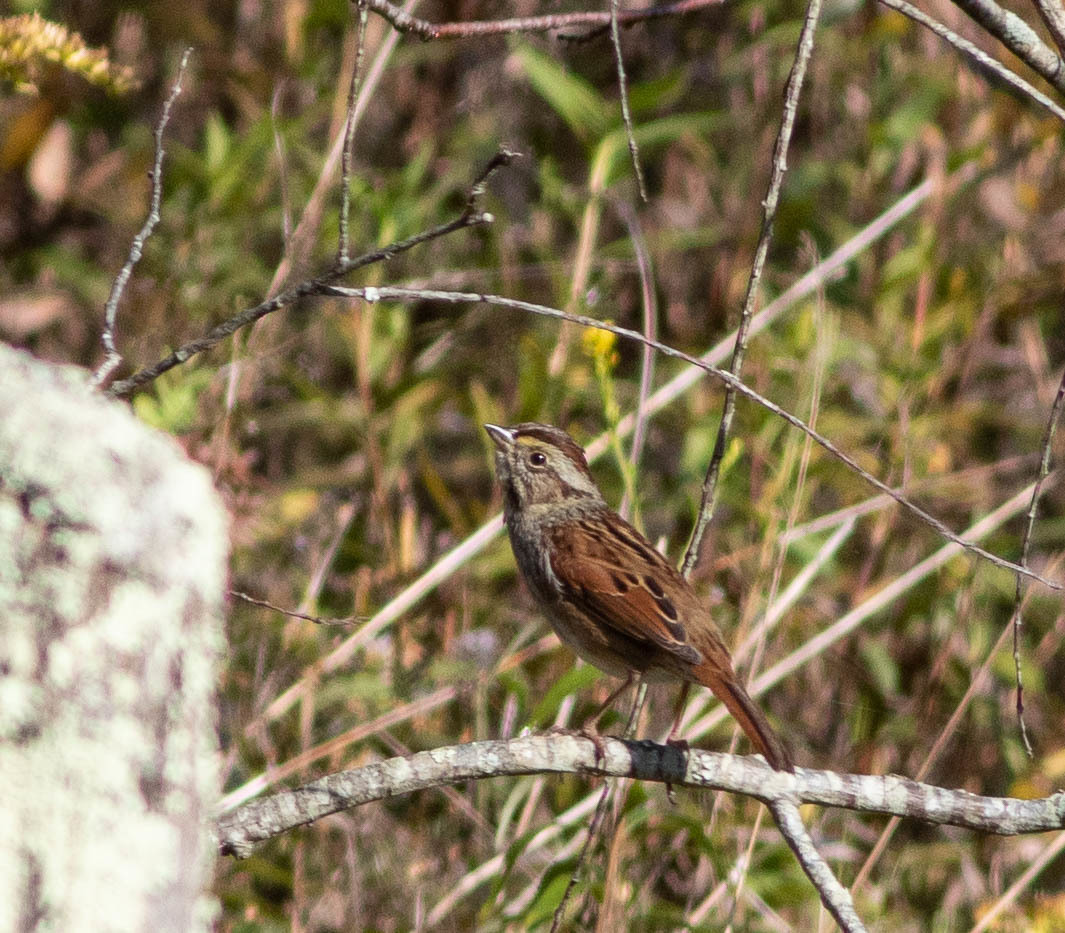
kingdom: Animalia
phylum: Chordata
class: Aves
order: Passeriformes
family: Passerellidae
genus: Melospiza
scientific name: Melospiza georgiana
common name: Swamp sparrow
